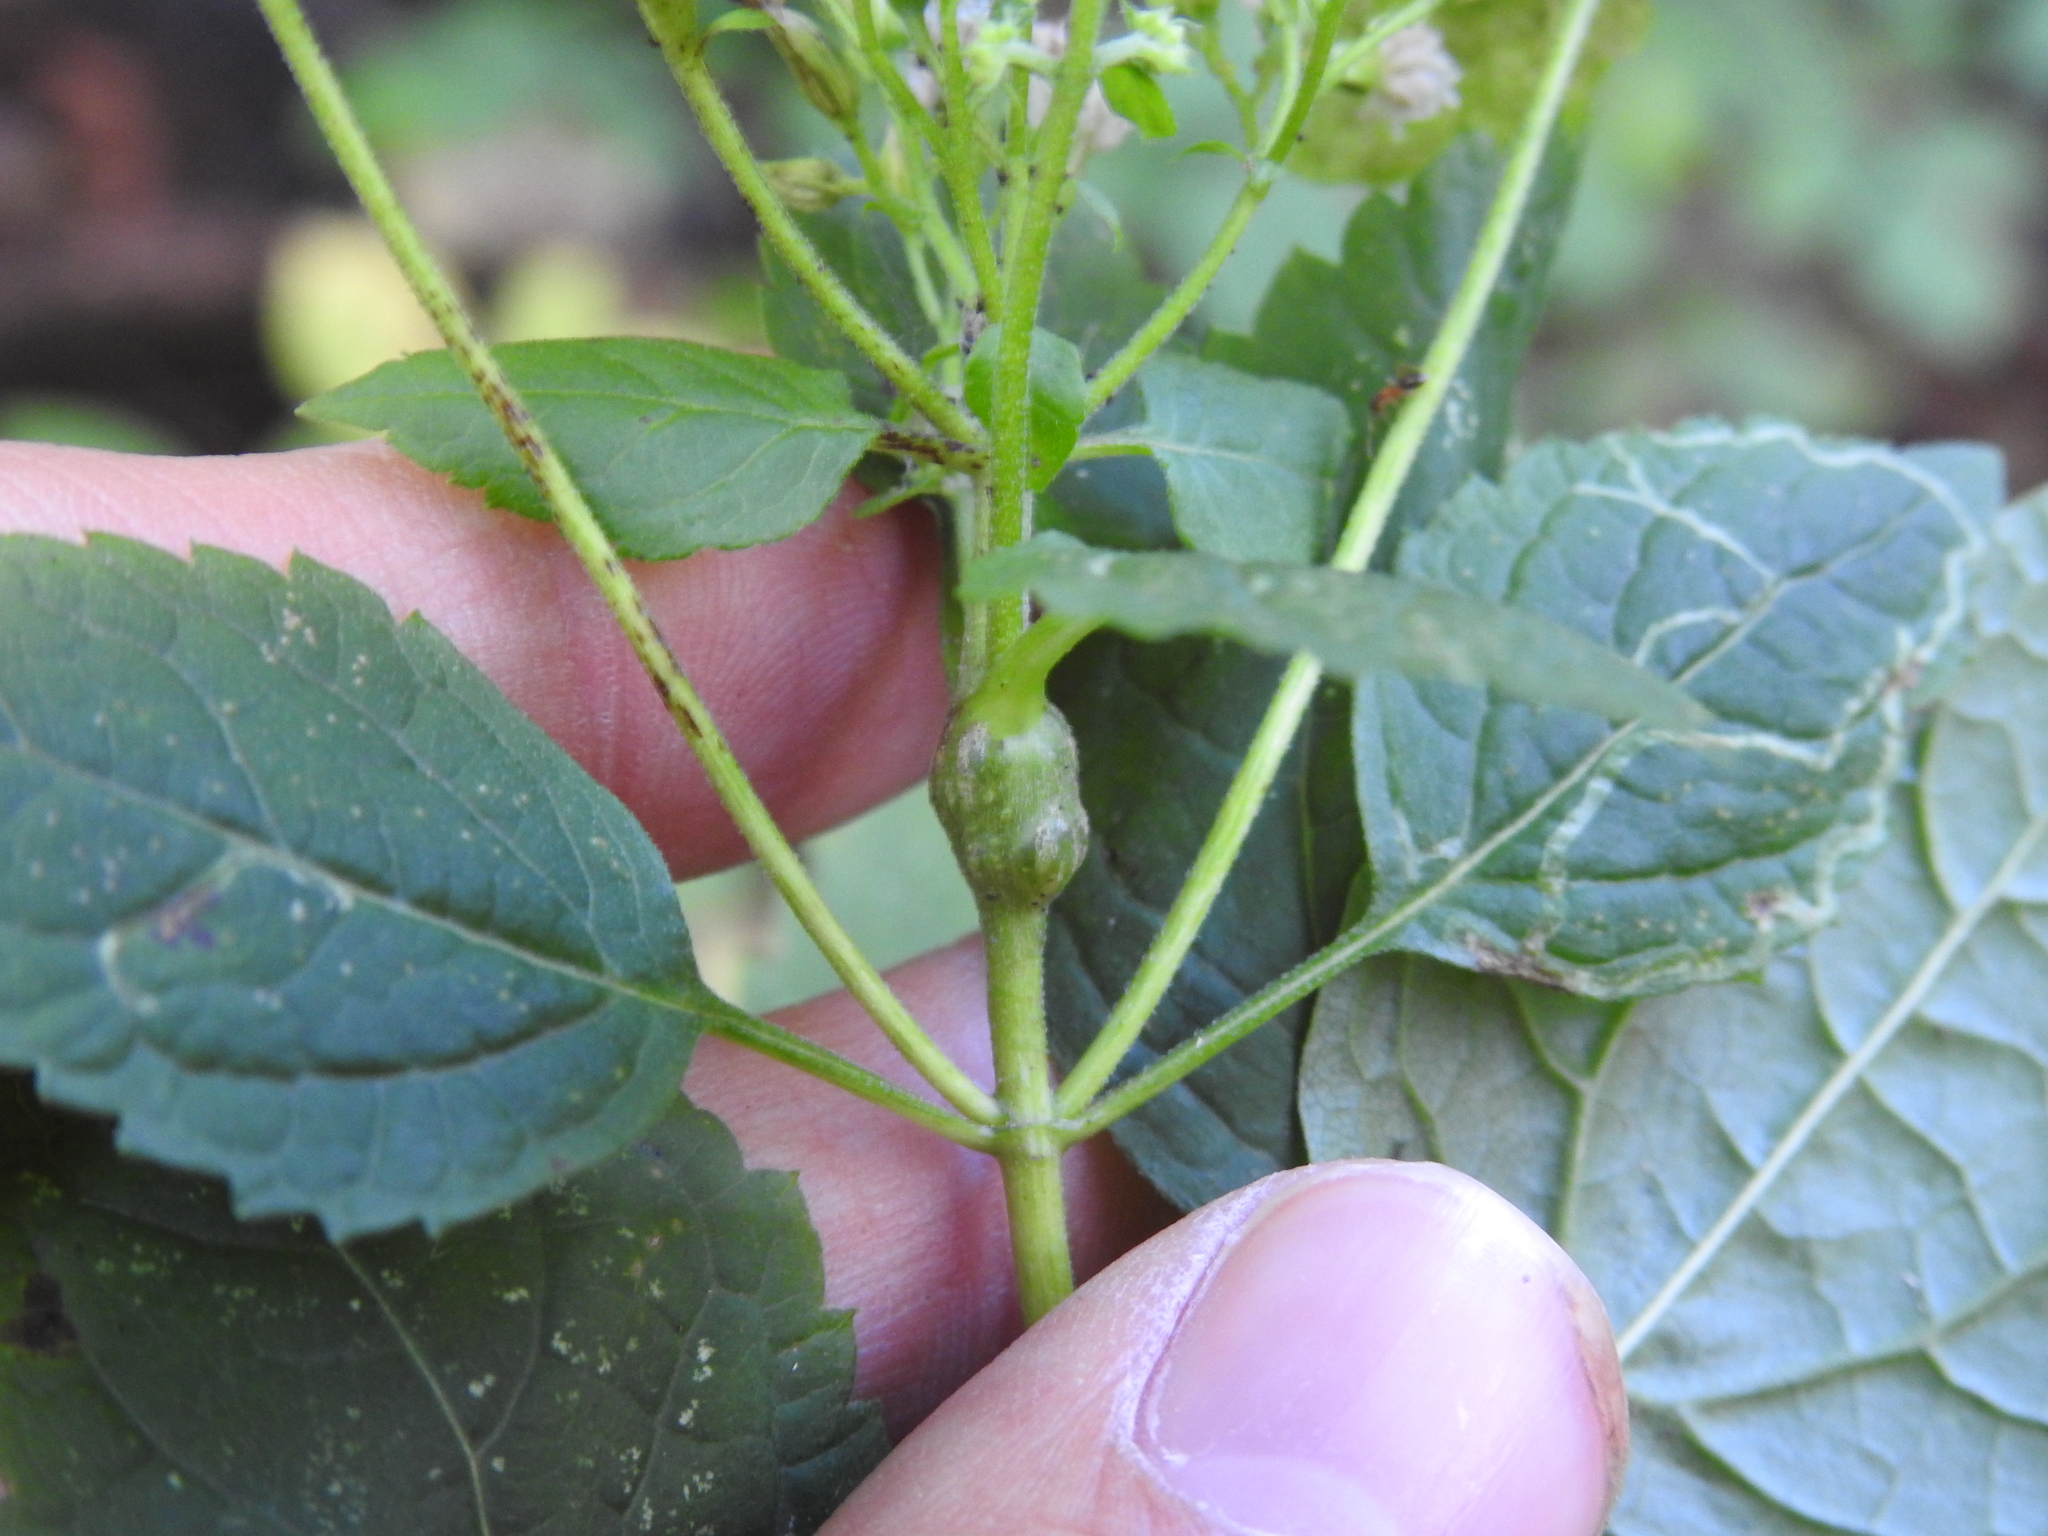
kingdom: Animalia
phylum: Arthropoda
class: Insecta
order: Diptera
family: Cecidomyiidae
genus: Asphondylia
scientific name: Asphondylia eupatorii
